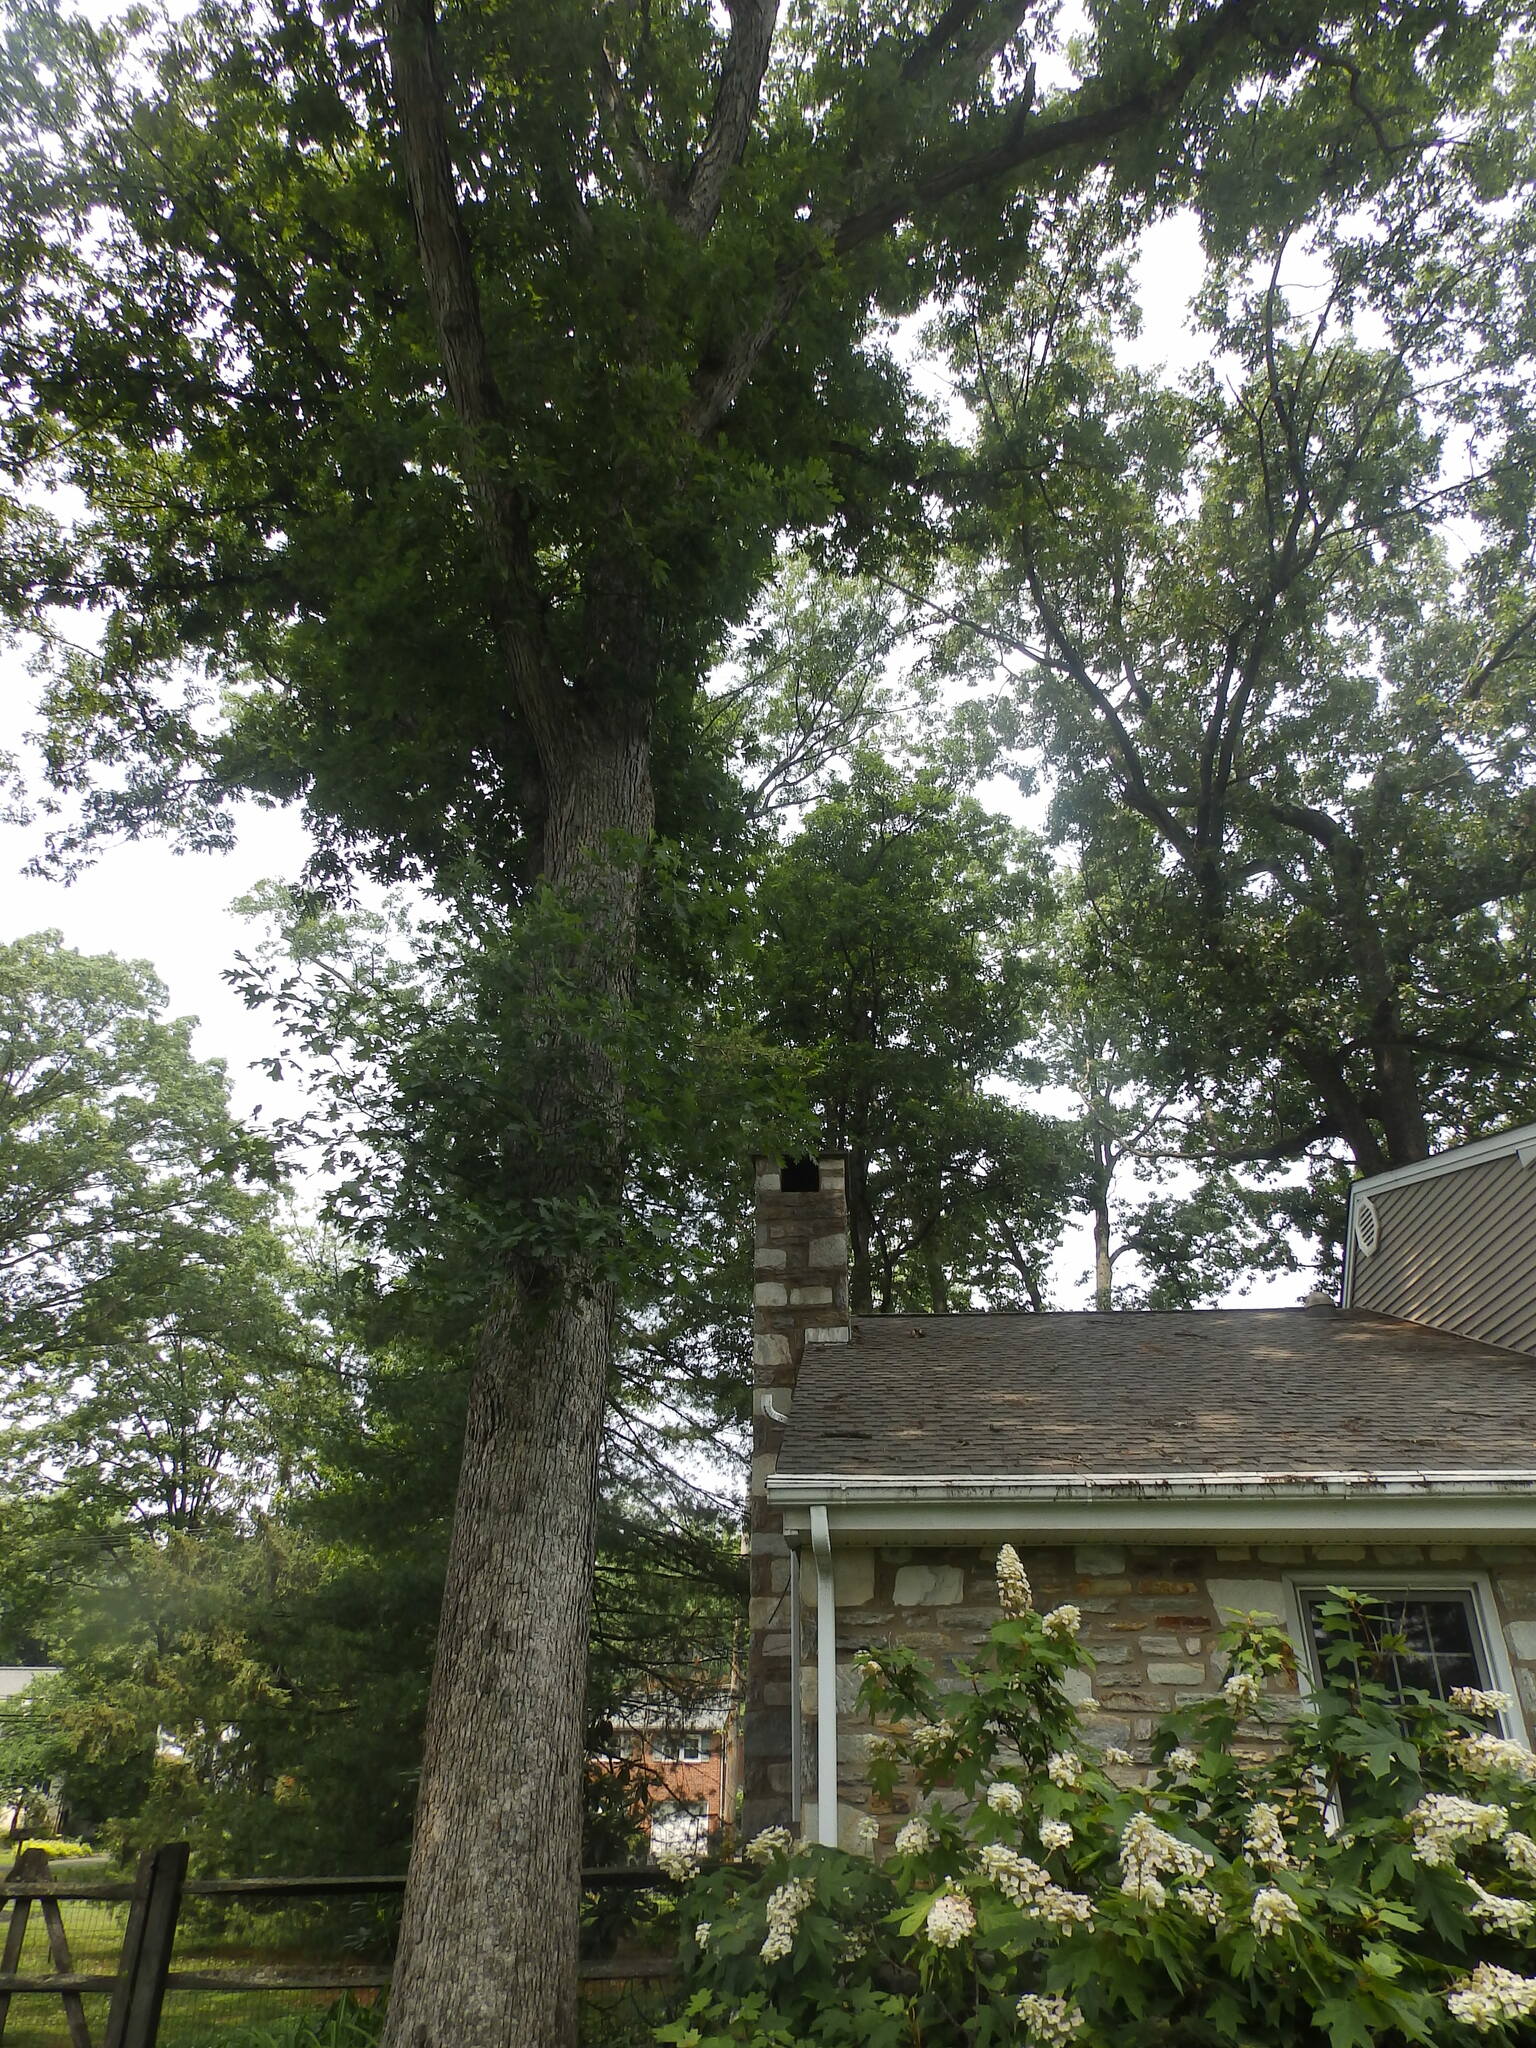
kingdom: Plantae
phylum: Tracheophyta
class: Magnoliopsida
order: Fagales
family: Fagaceae
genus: Quercus
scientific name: Quercus alba
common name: White oak
